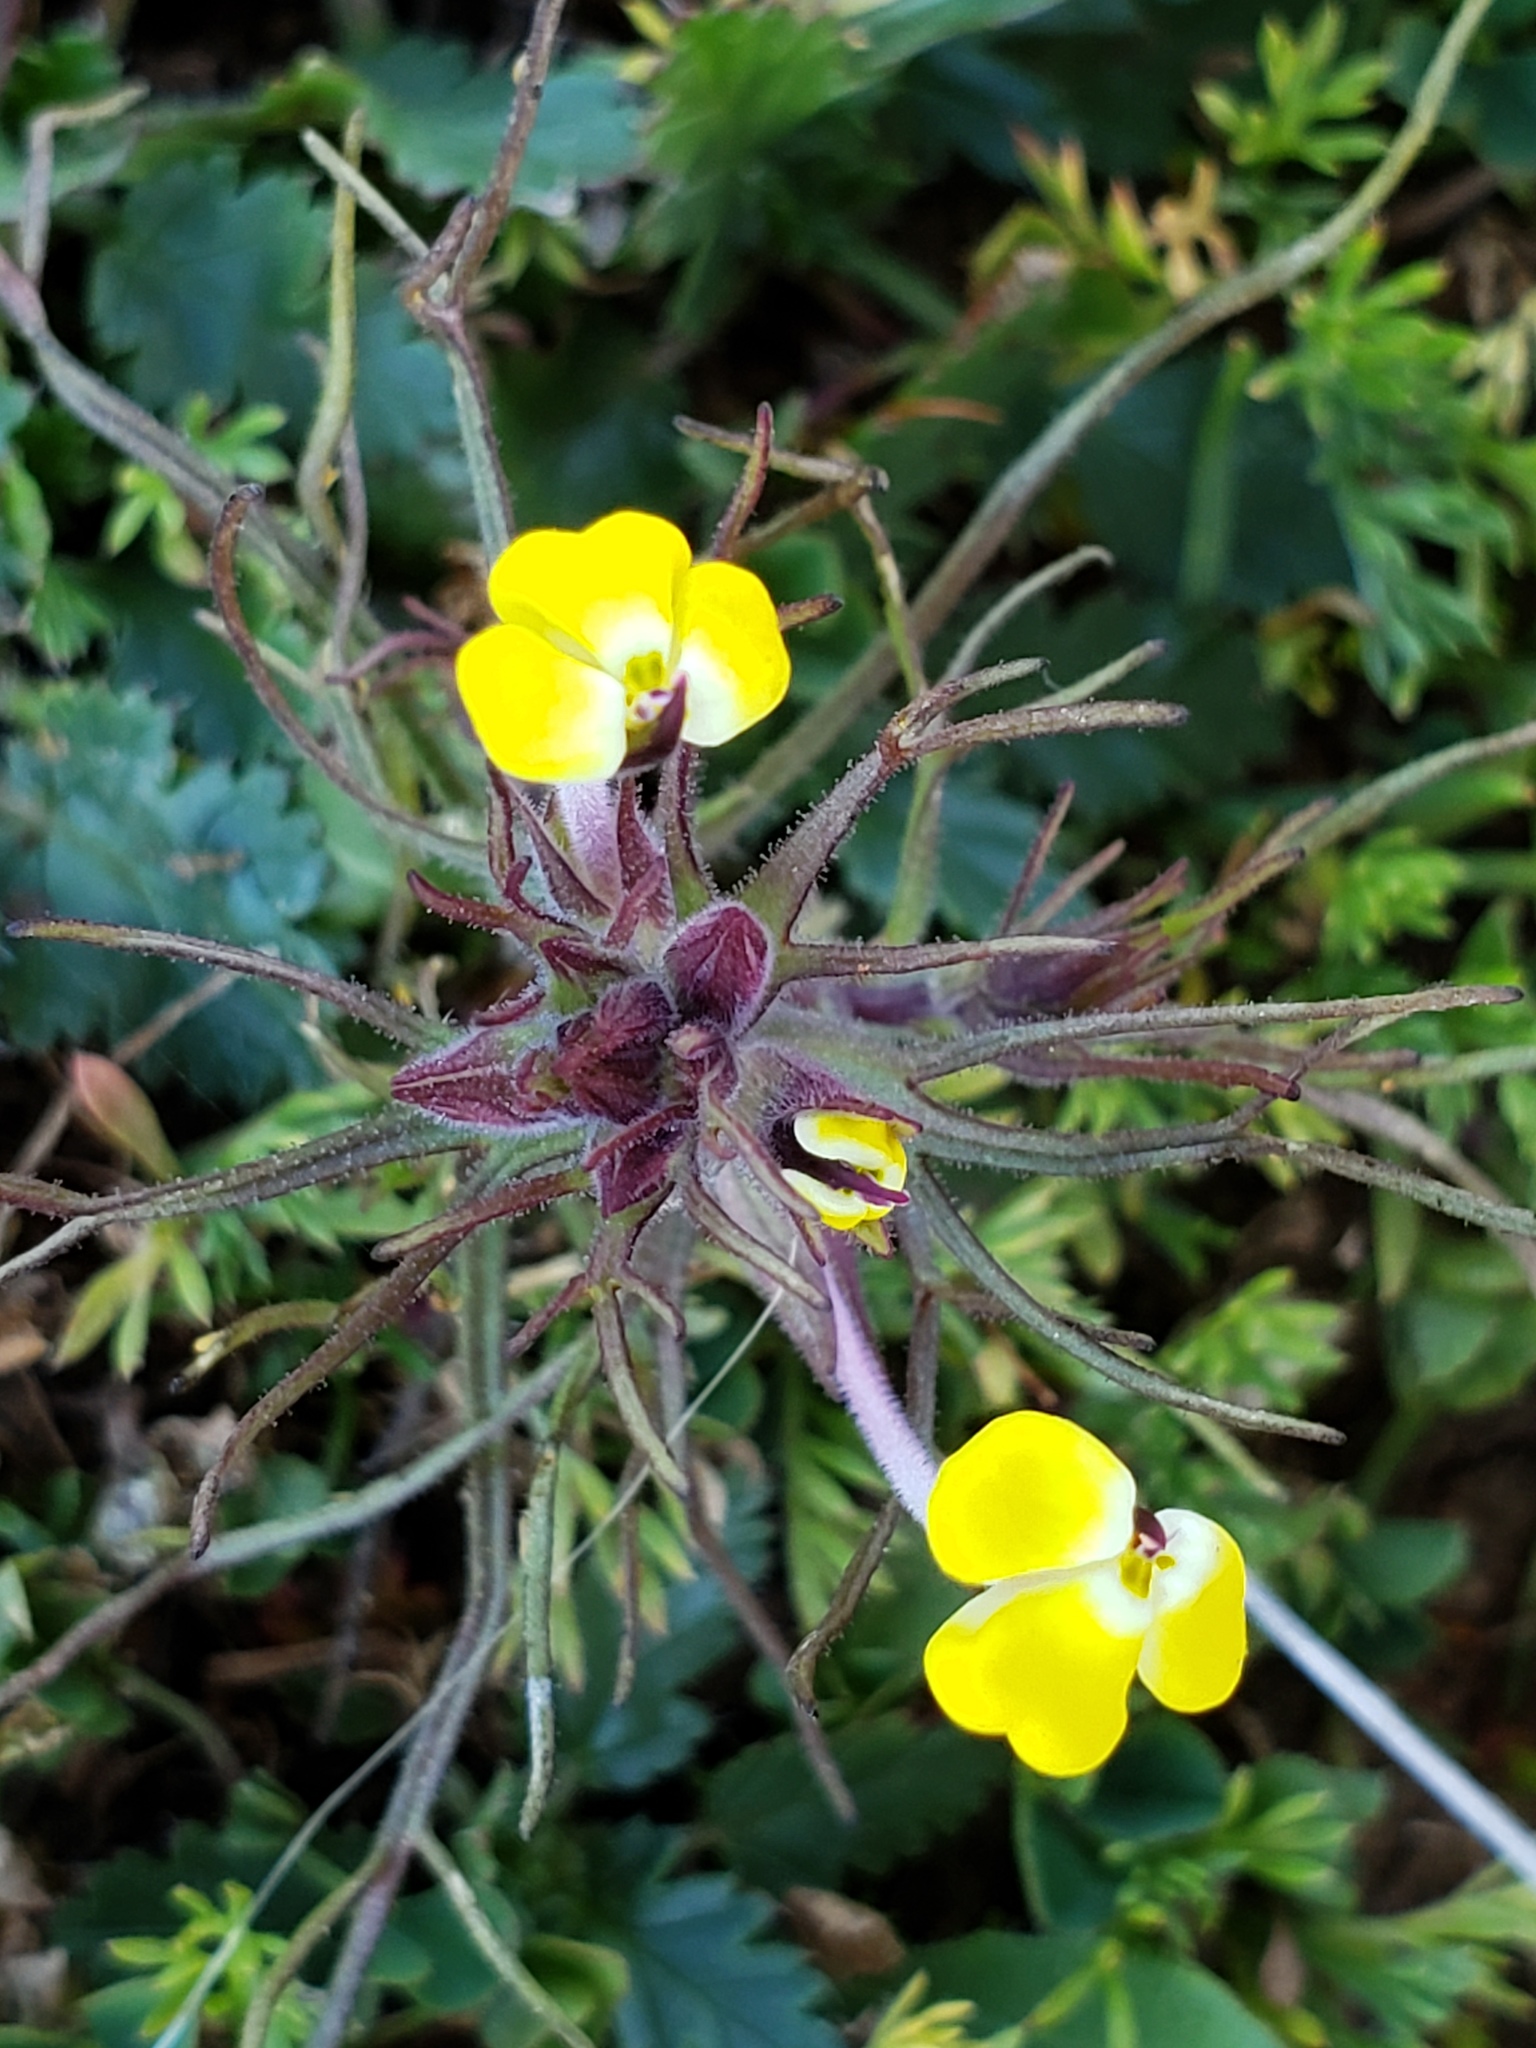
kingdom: Plantae
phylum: Tracheophyta
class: Magnoliopsida
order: Lamiales
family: Orobanchaceae
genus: Triphysaria
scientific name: Triphysaria eriantha
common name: Johnny-tuck
